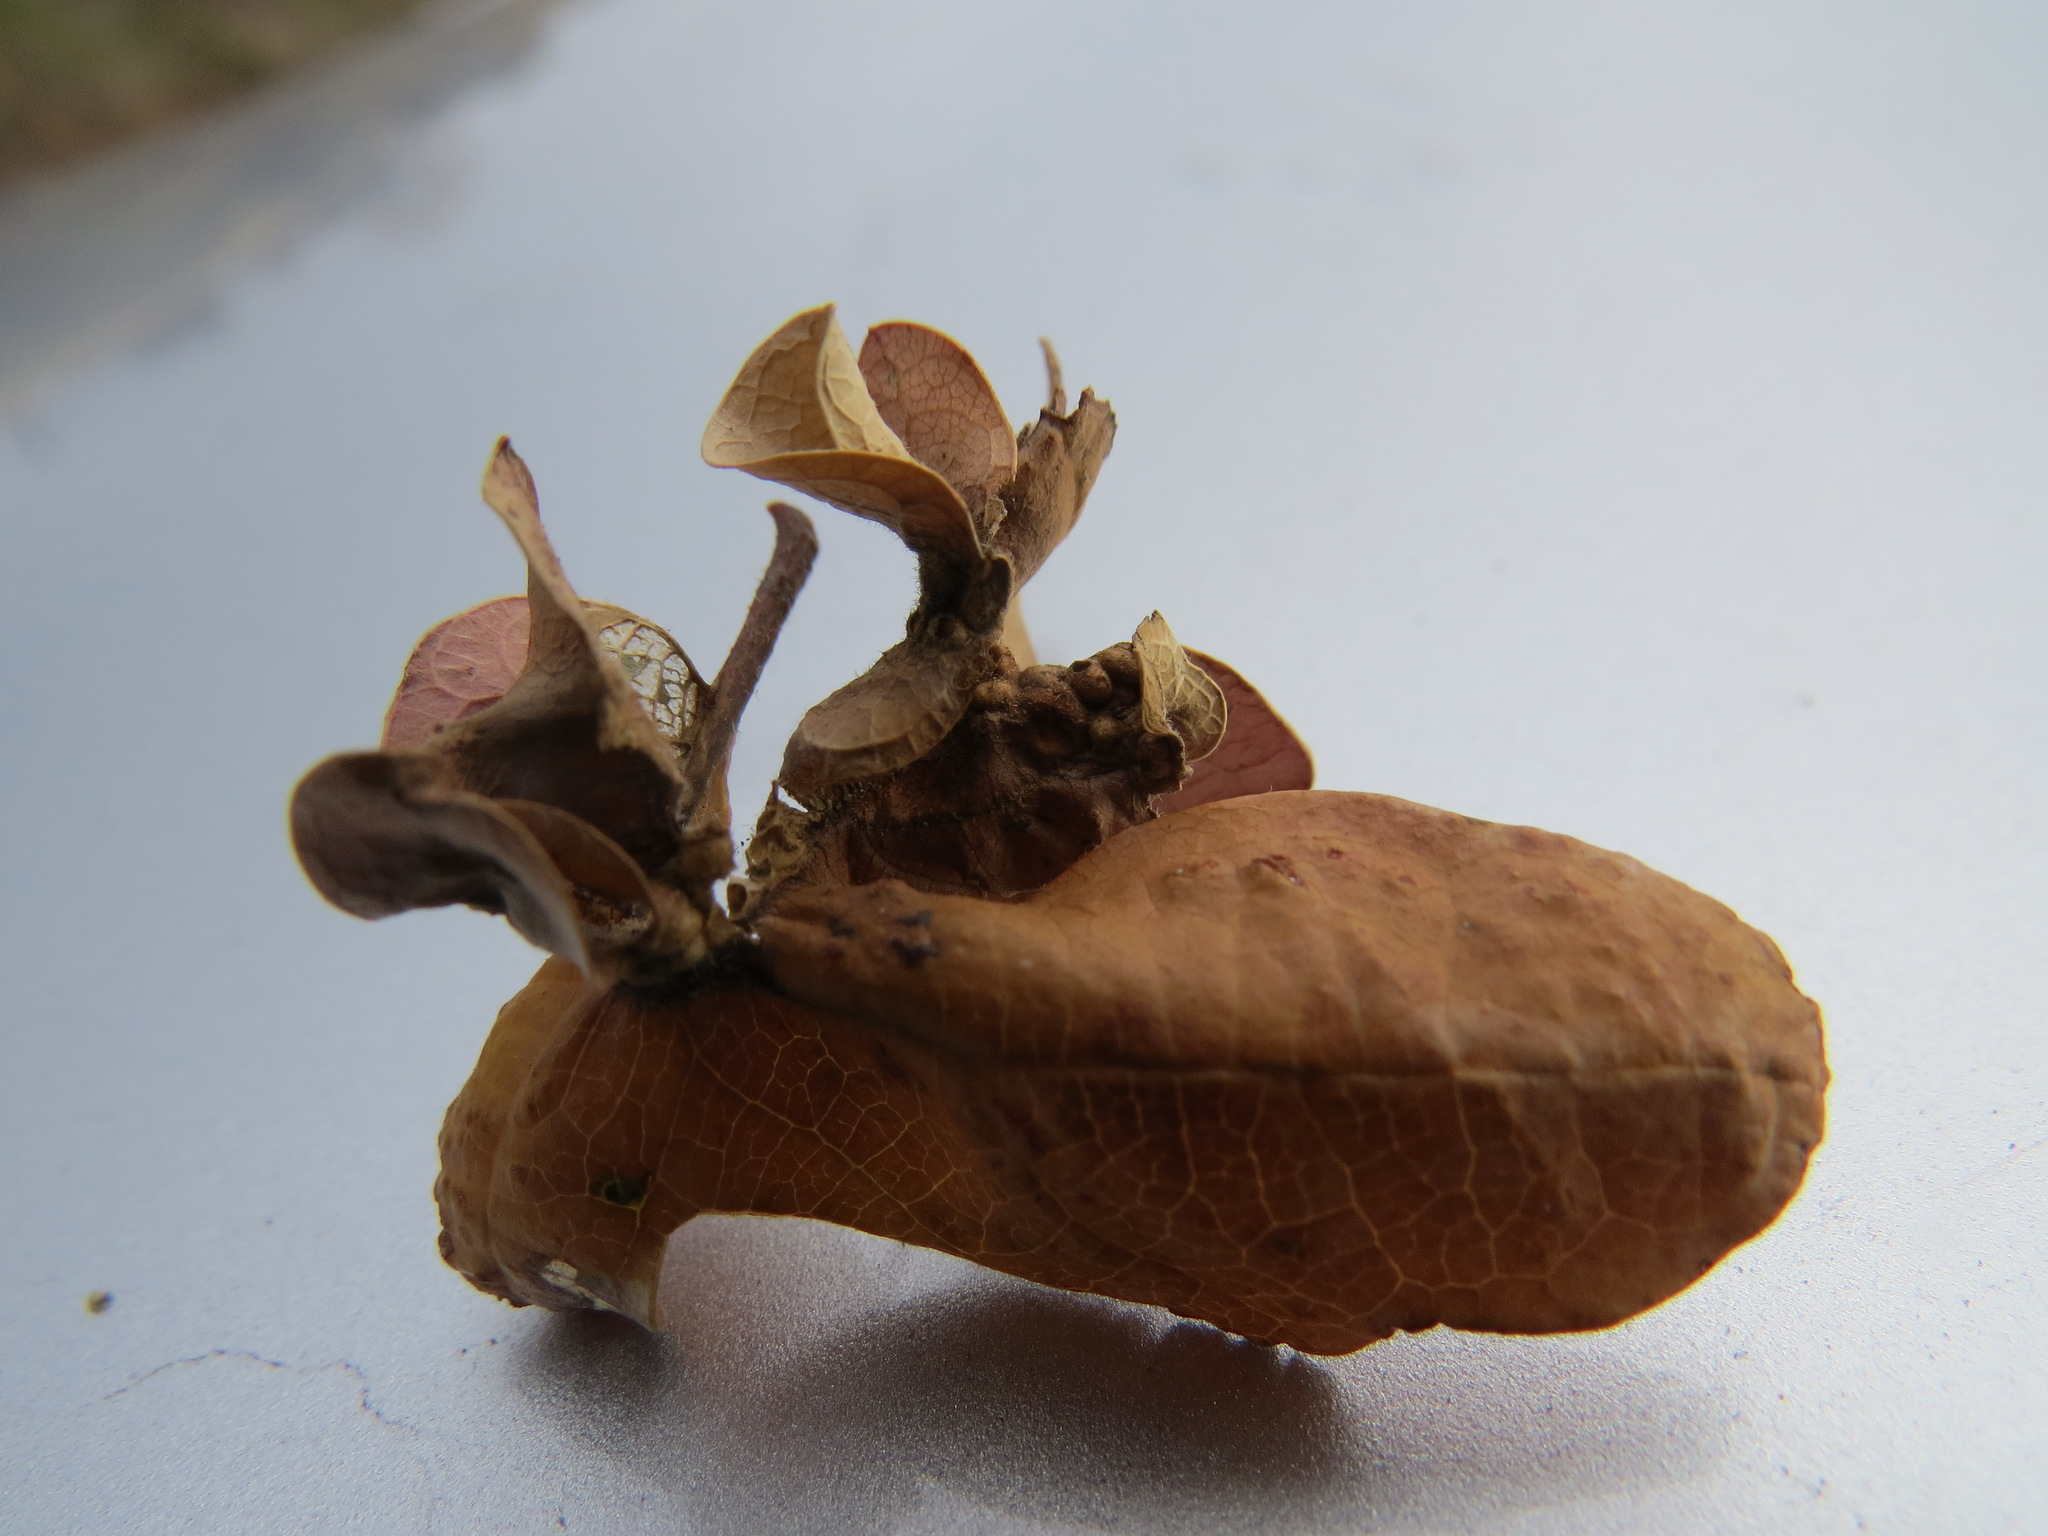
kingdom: Animalia
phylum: Arthropoda
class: Insecta
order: Hymenoptera
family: Cynipidae
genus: Neuroterus
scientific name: Neuroterus saltarius
